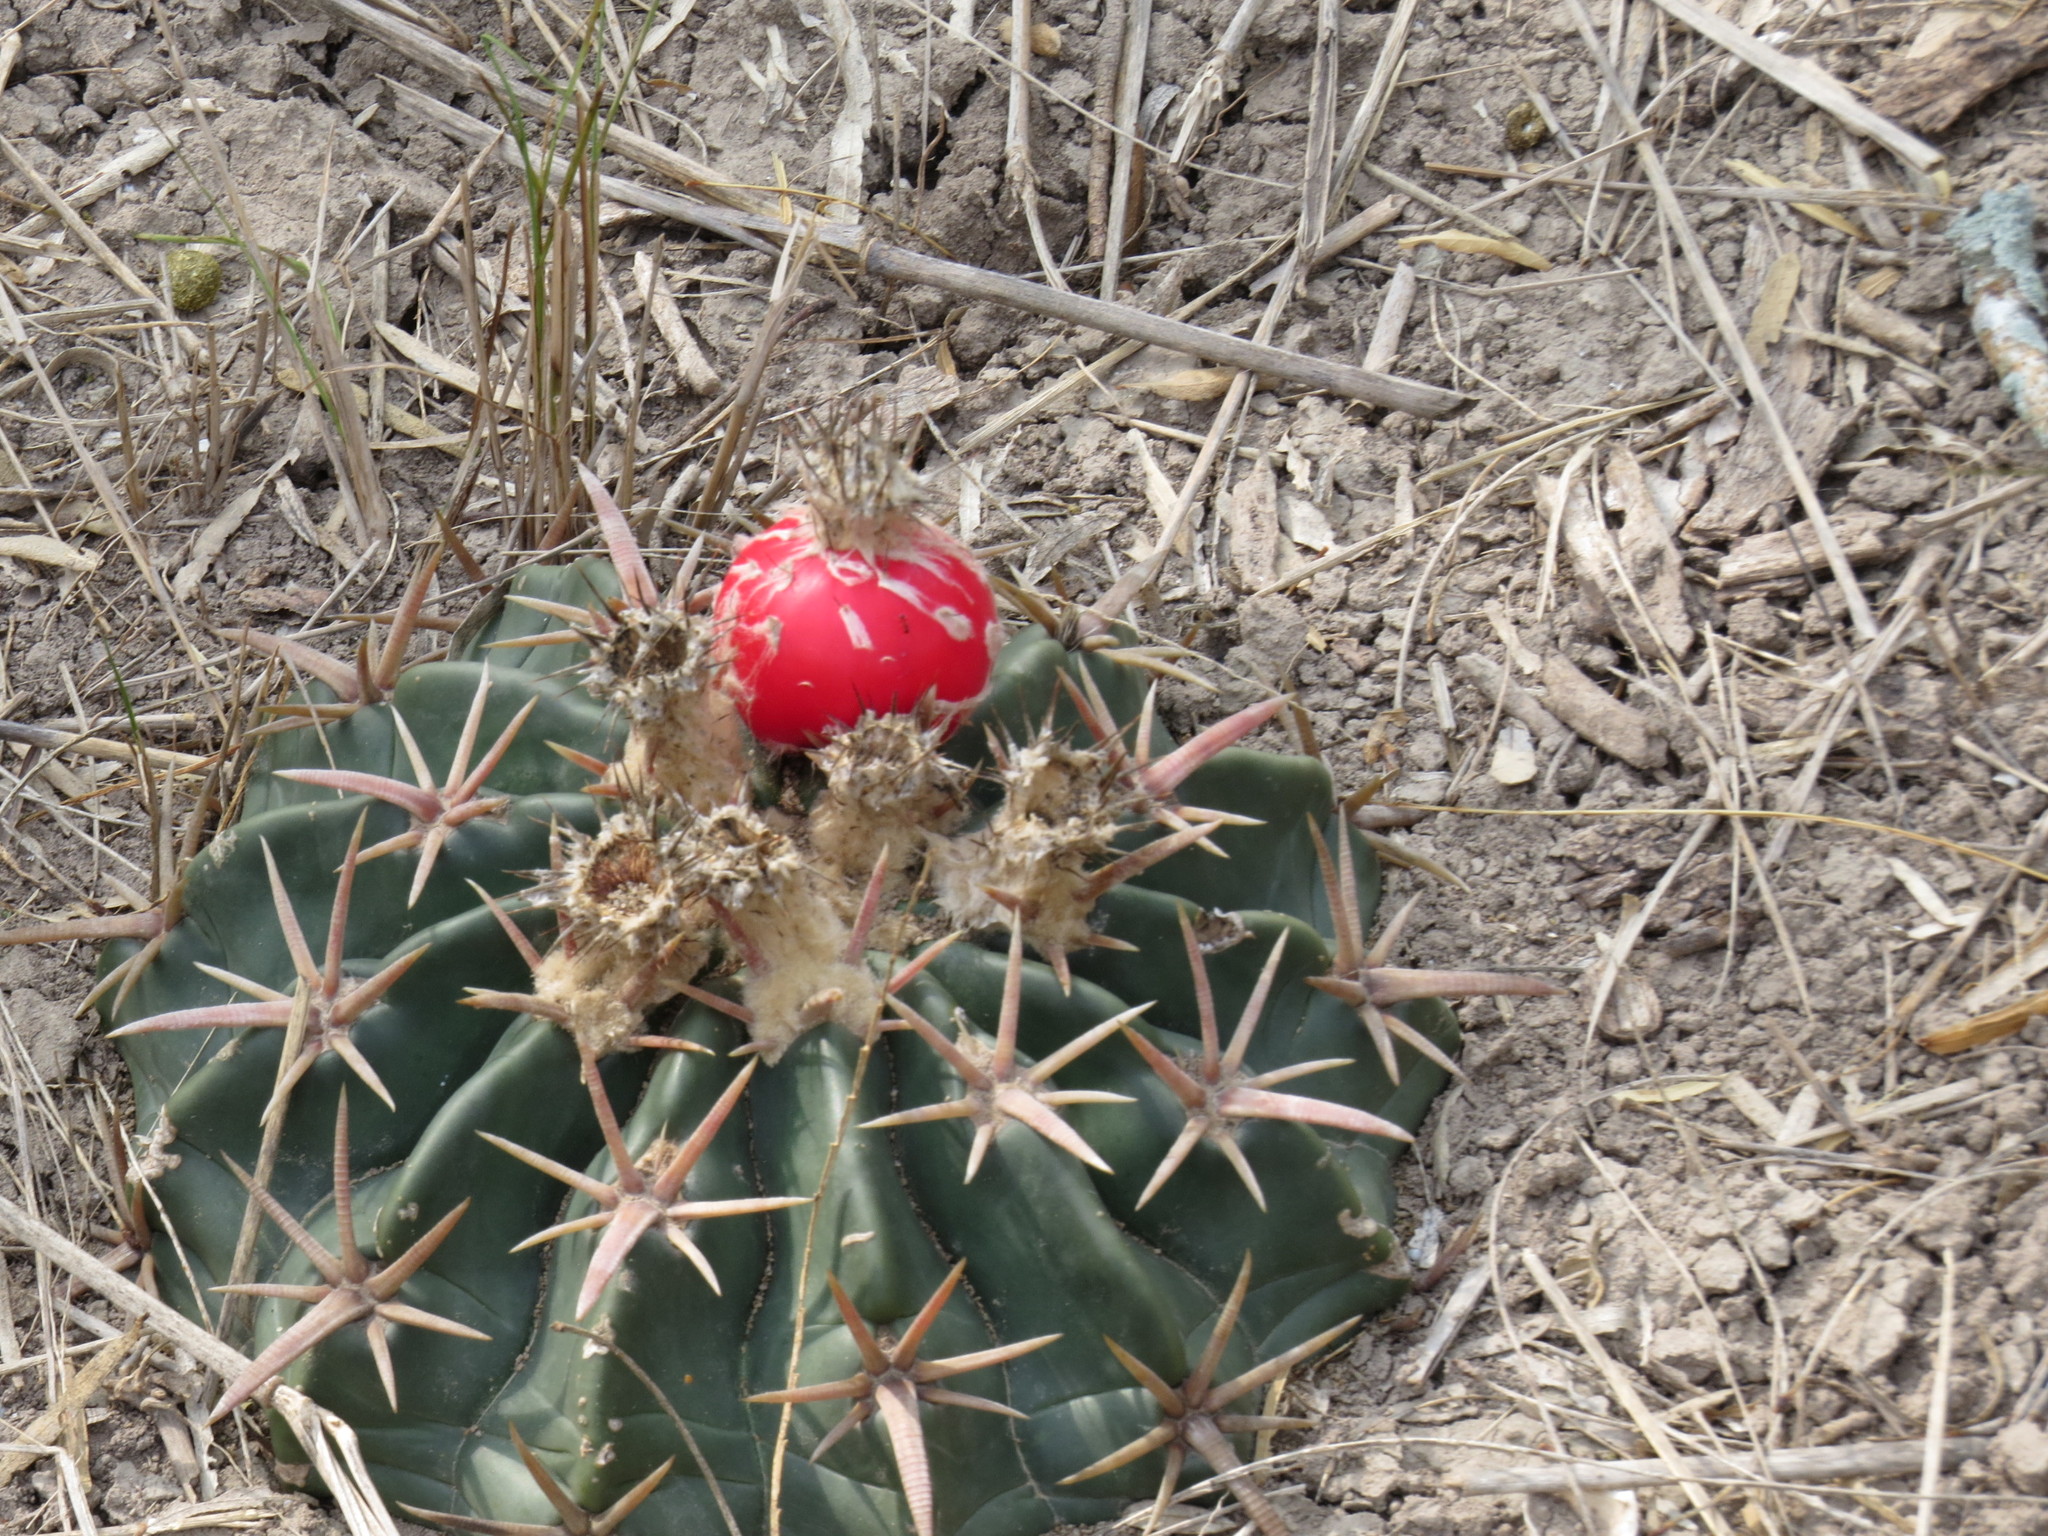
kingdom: Plantae
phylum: Tracheophyta
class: Magnoliopsida
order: Caryophyllales
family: Cactaceae
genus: Echinocactus
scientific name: Echinocactus texensis
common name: Devil's pincushion
